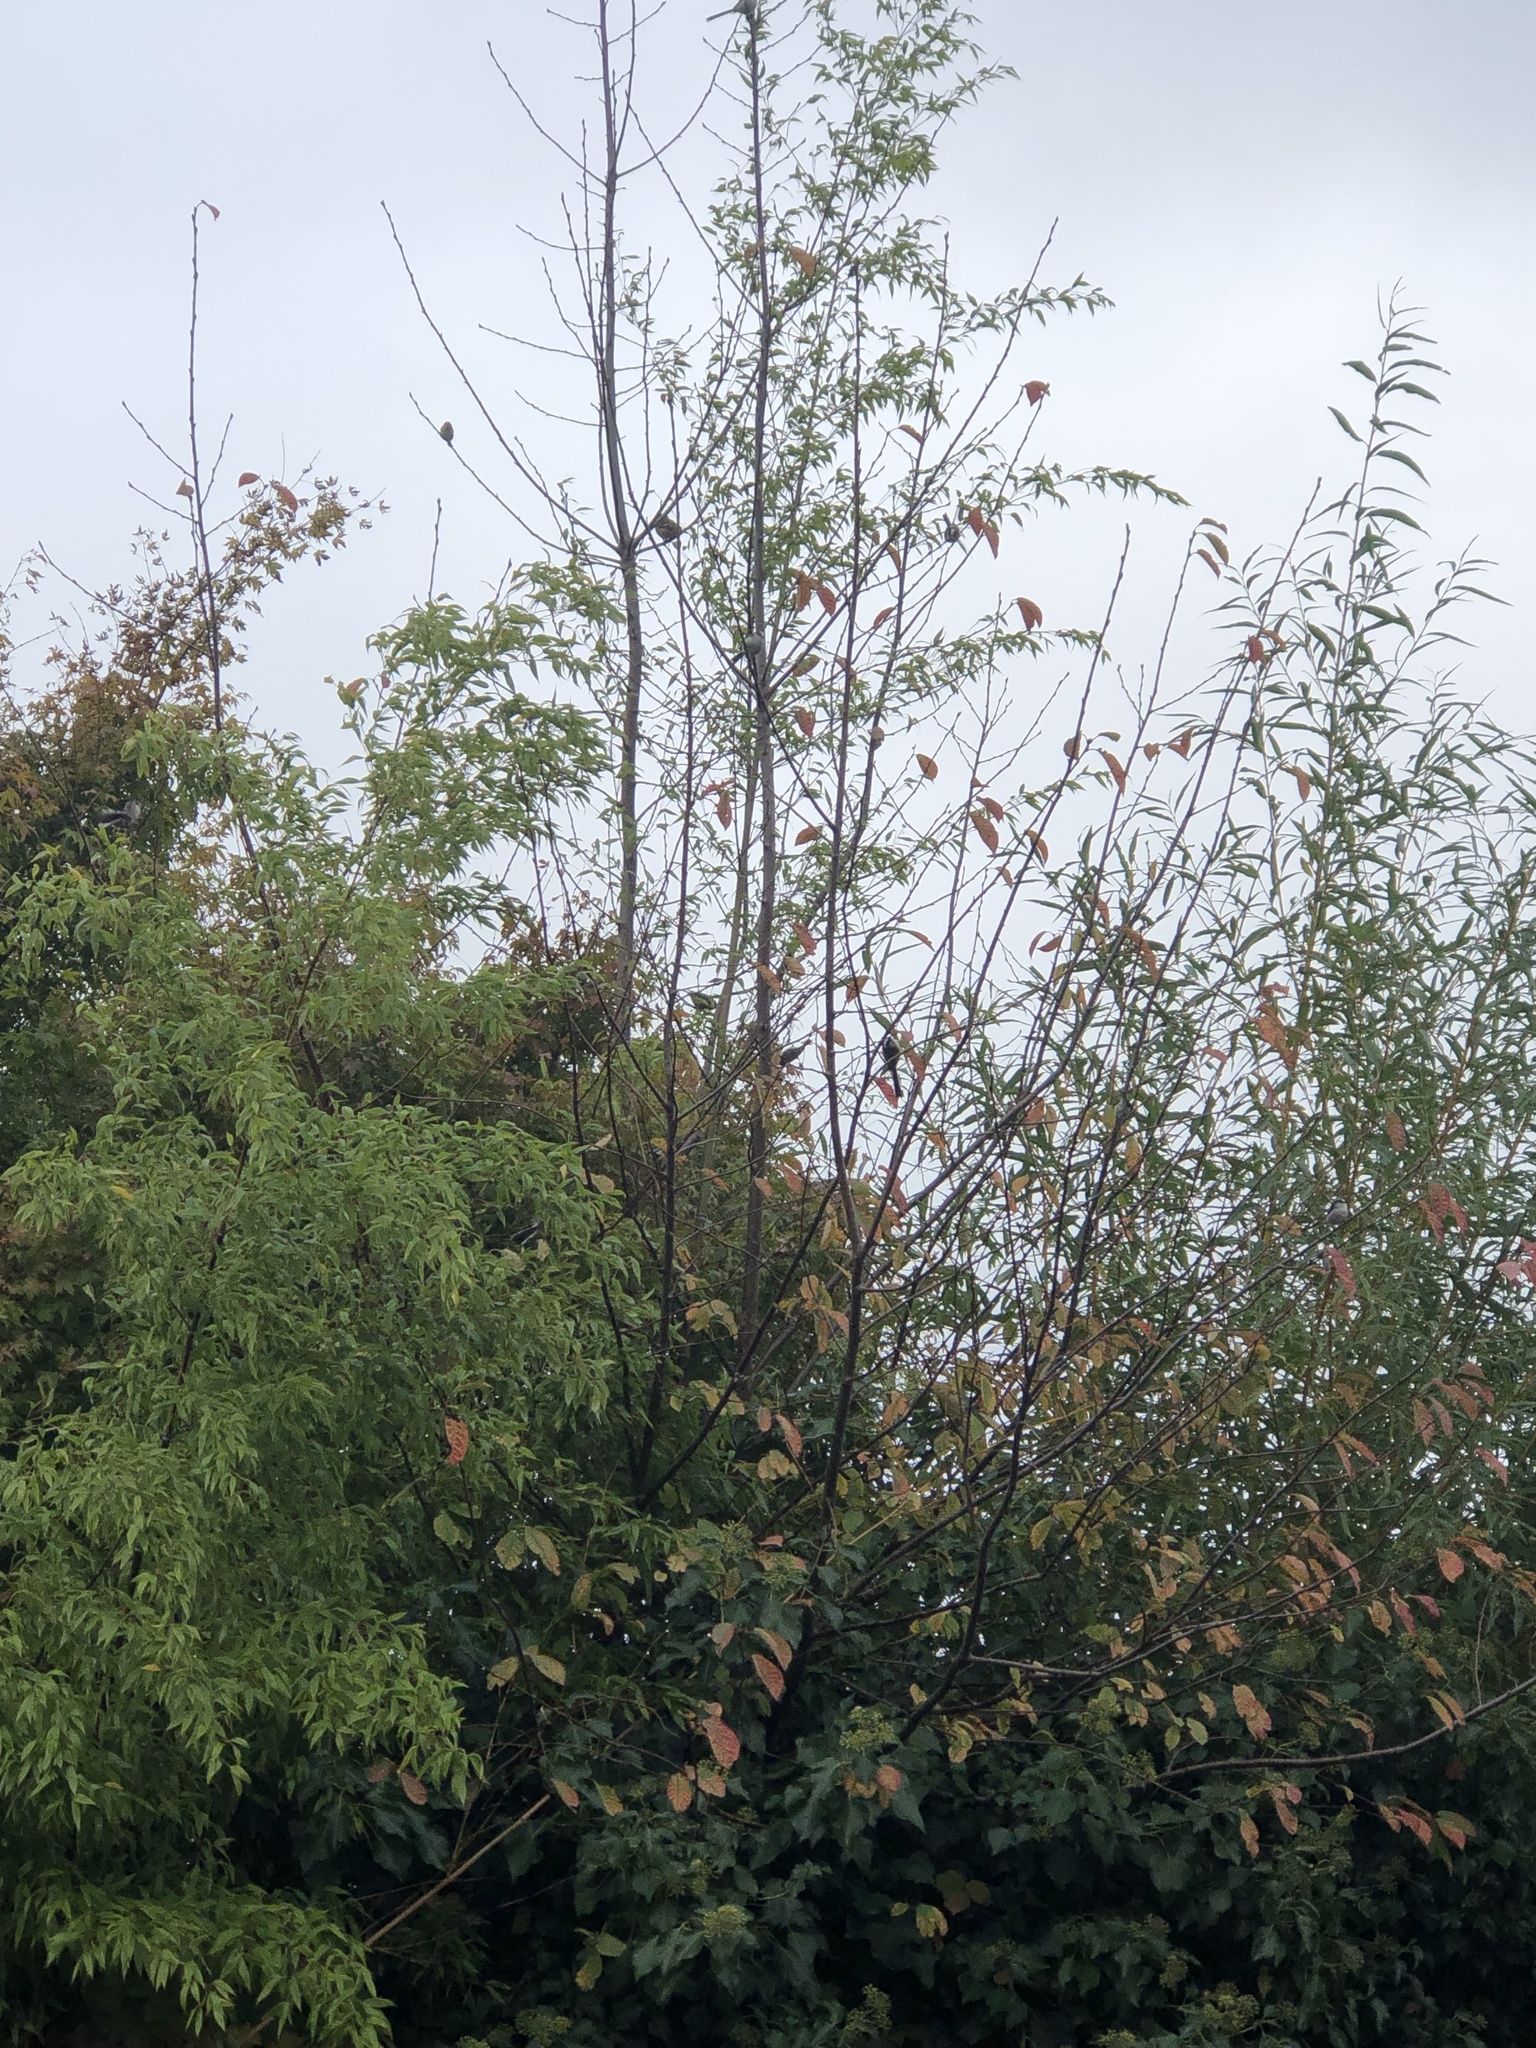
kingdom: Animalia
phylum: Chordata
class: Aves
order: Passeriformes
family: Paridae
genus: Cyanistes
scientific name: Cyanistes caeruleus
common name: Eurasian blue tit
